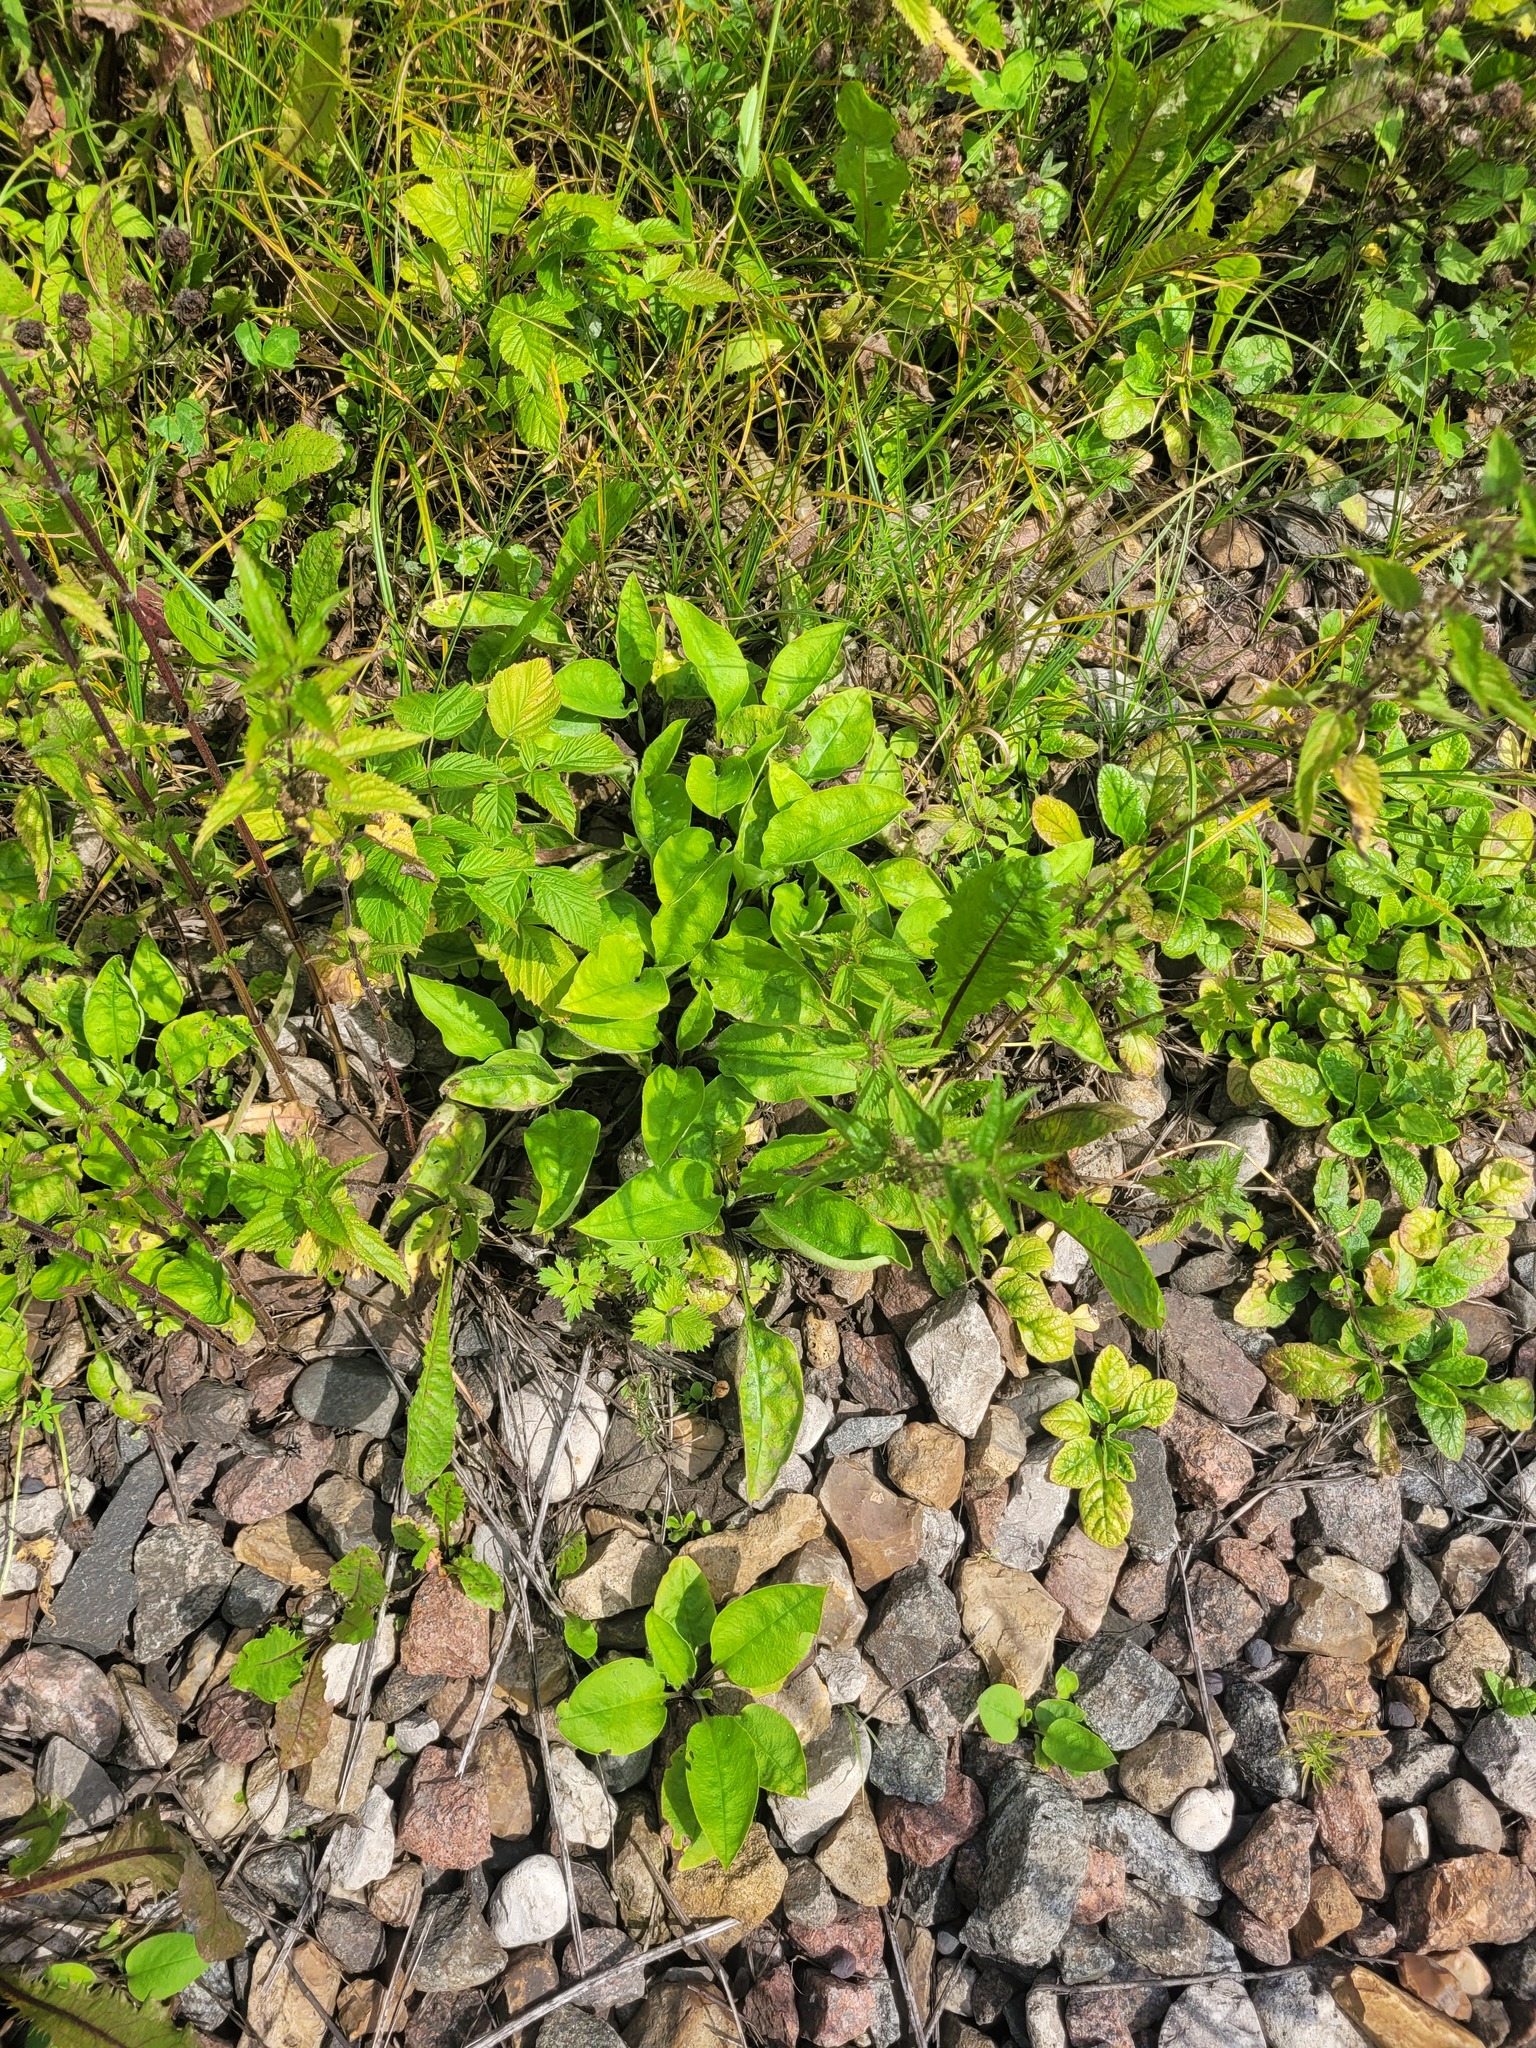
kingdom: Plantae
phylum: Tracheophyta
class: Magnoliopsida
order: Boraginales
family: Boraginaceae
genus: Pulmonaria
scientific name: Pulmonaria obscura
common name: Suffolk lungwort
